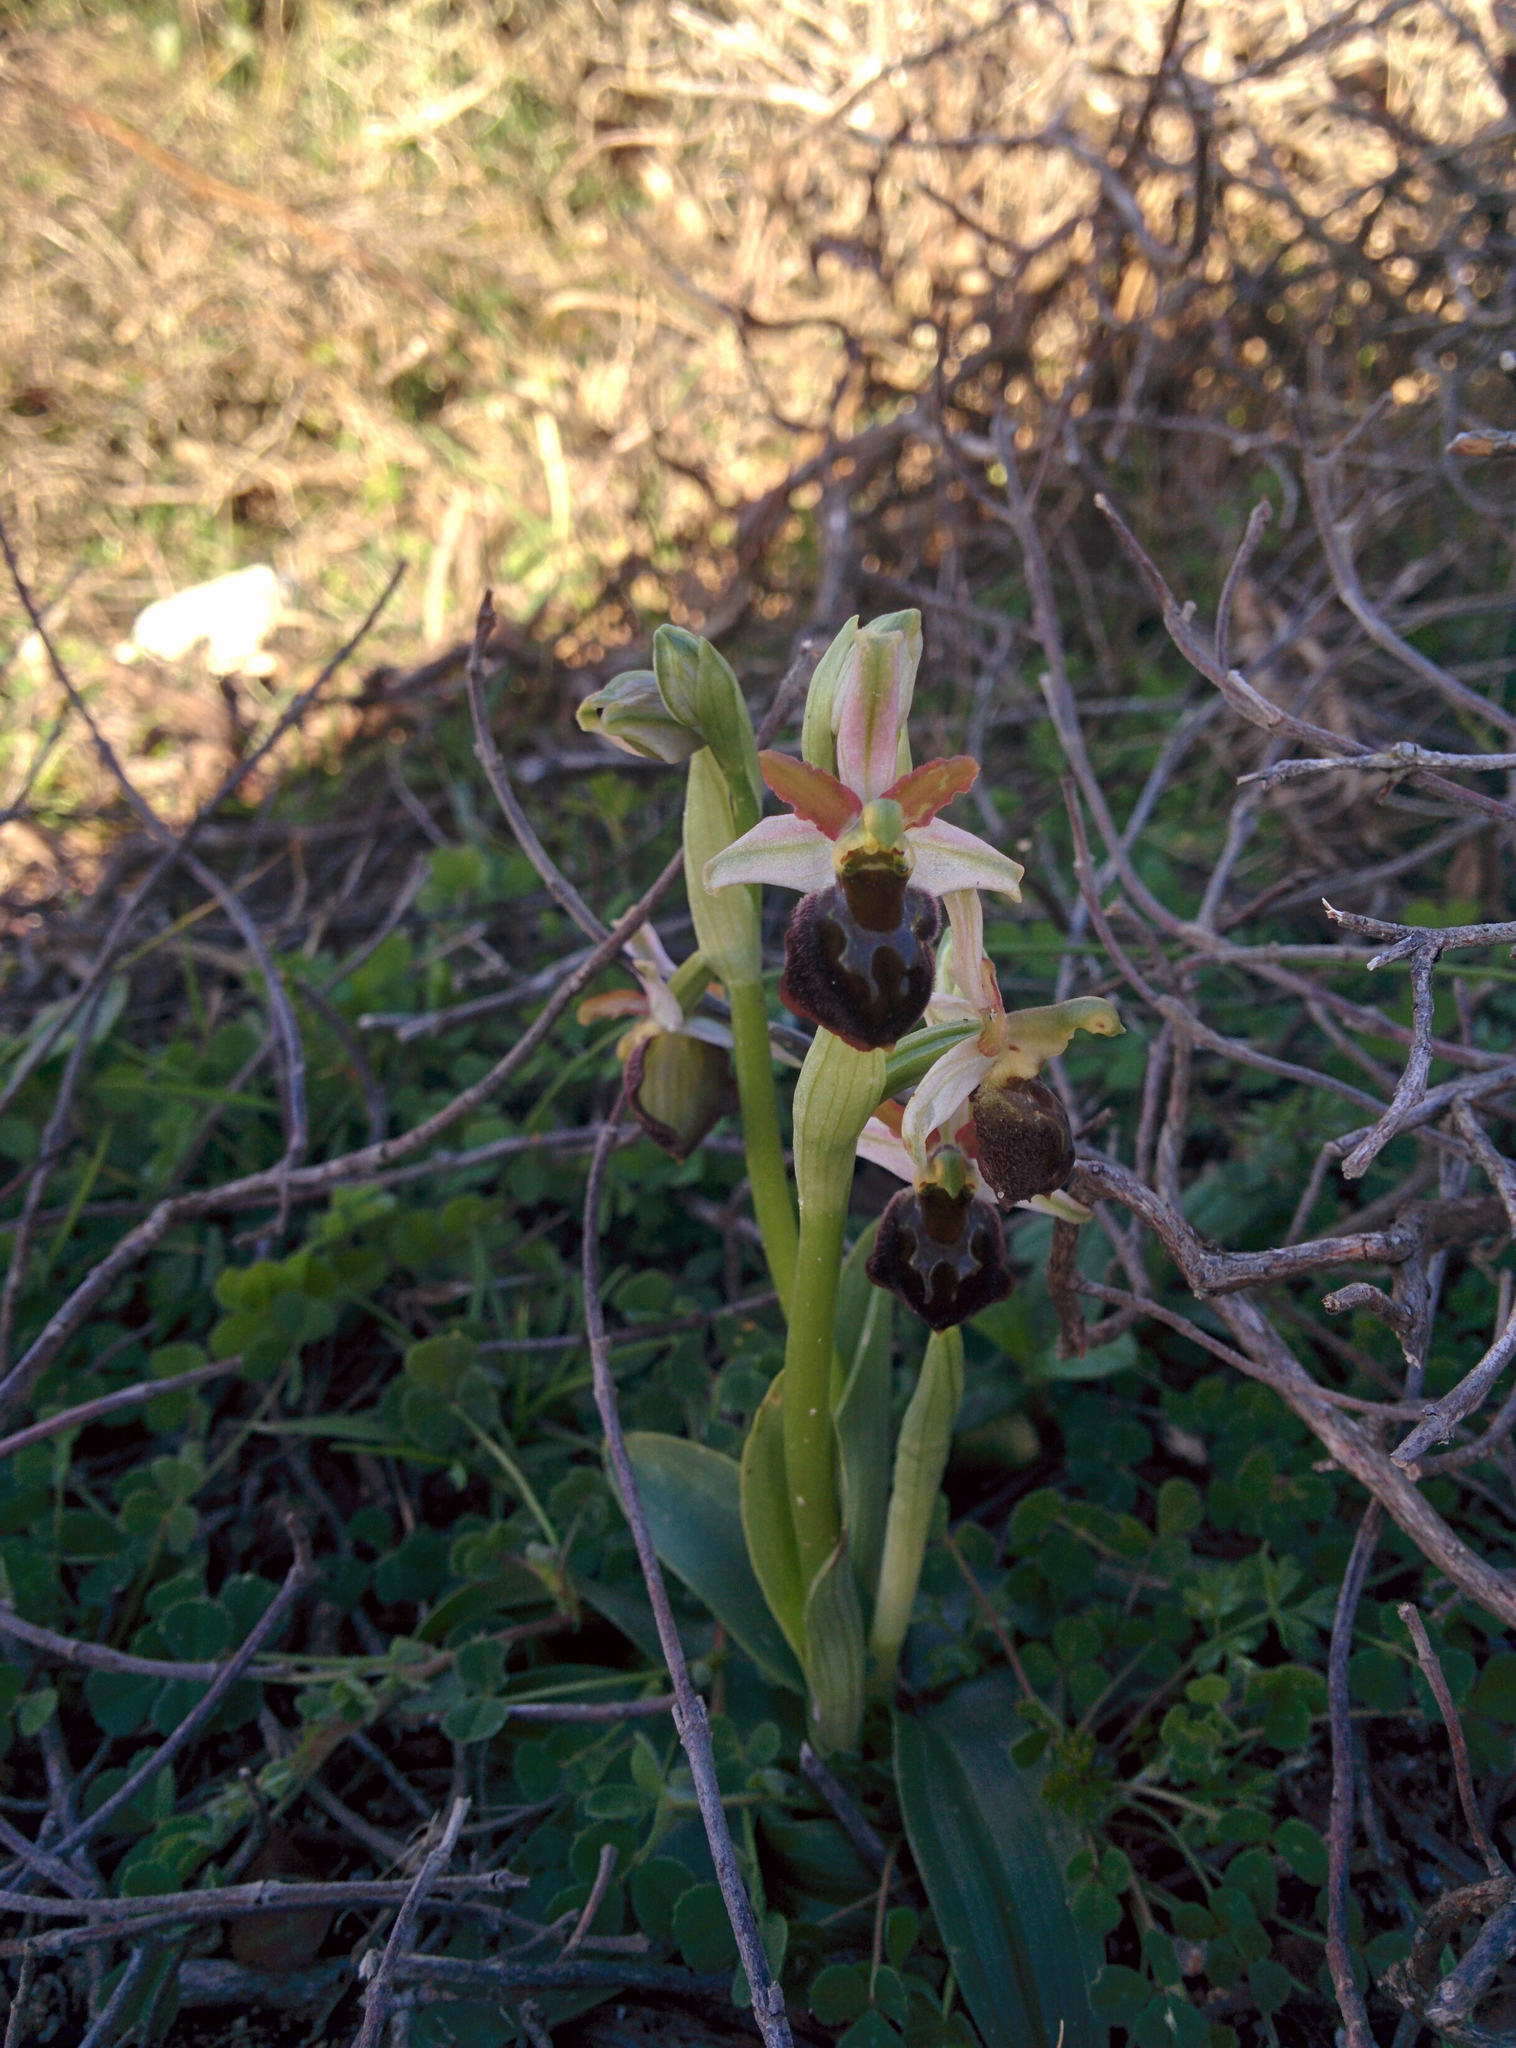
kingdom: Plantae
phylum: Tracheophyta
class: Liliopsida
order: Asparagales
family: Orchidaceae
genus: Ophrys
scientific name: Ophrys arachnitiformis
